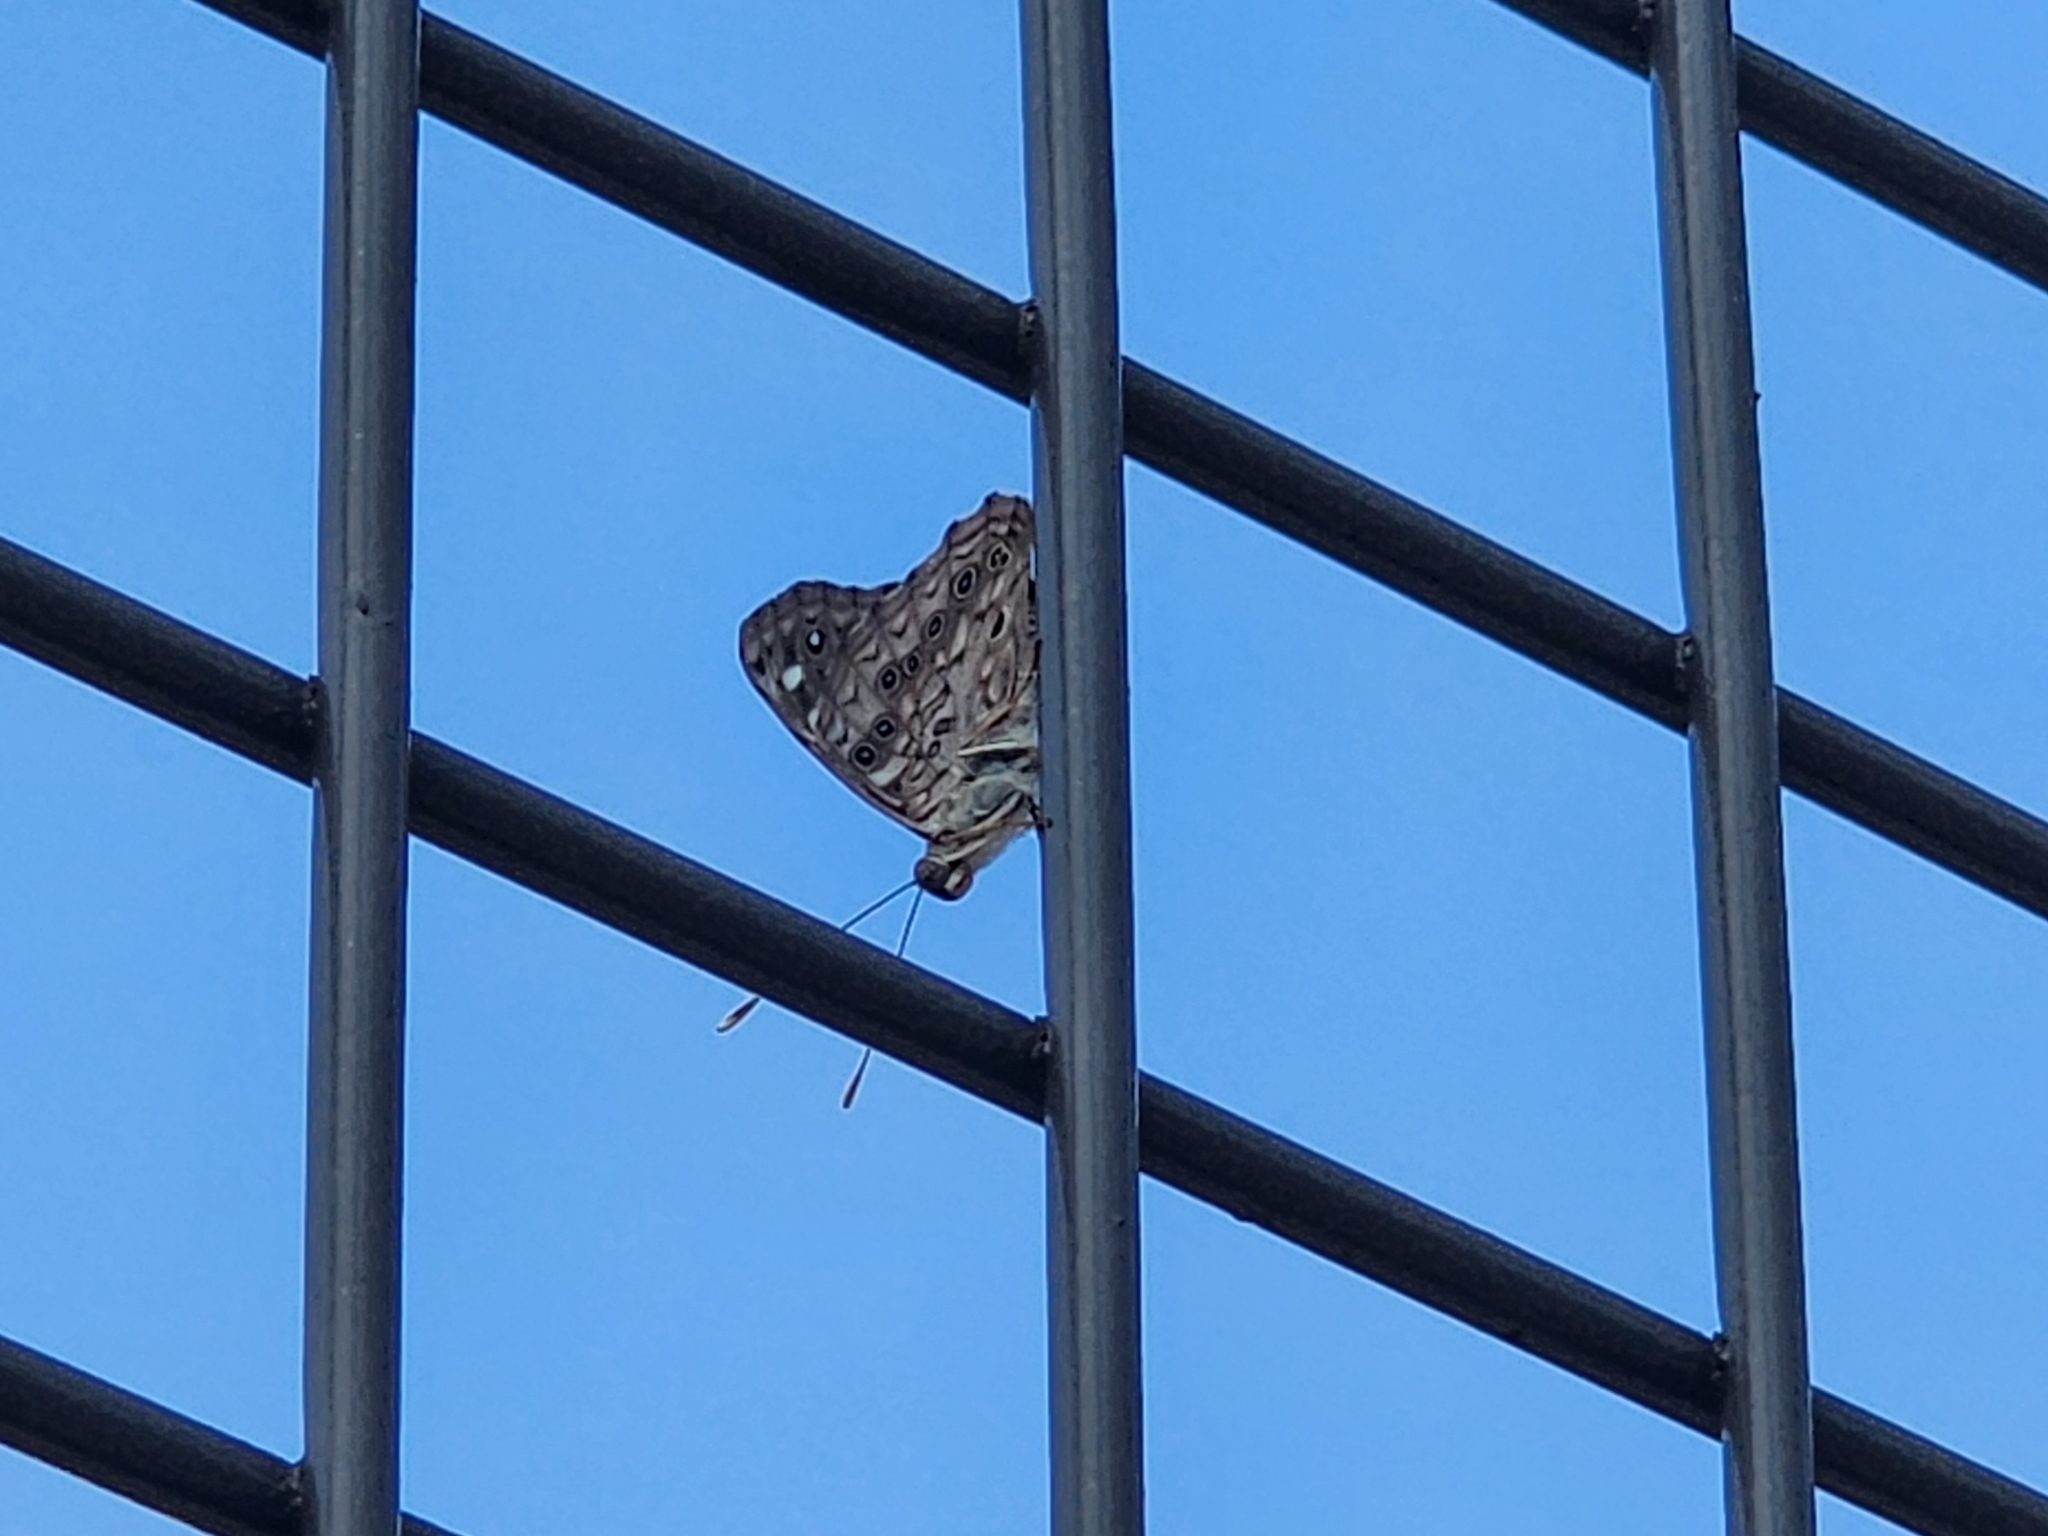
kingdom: Animalia
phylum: Arthropoda
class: Insecta
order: Lepidoptera
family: Nymphalidae
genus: Asterocampa
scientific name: Asterocampa celtis
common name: Hackberry emperor
